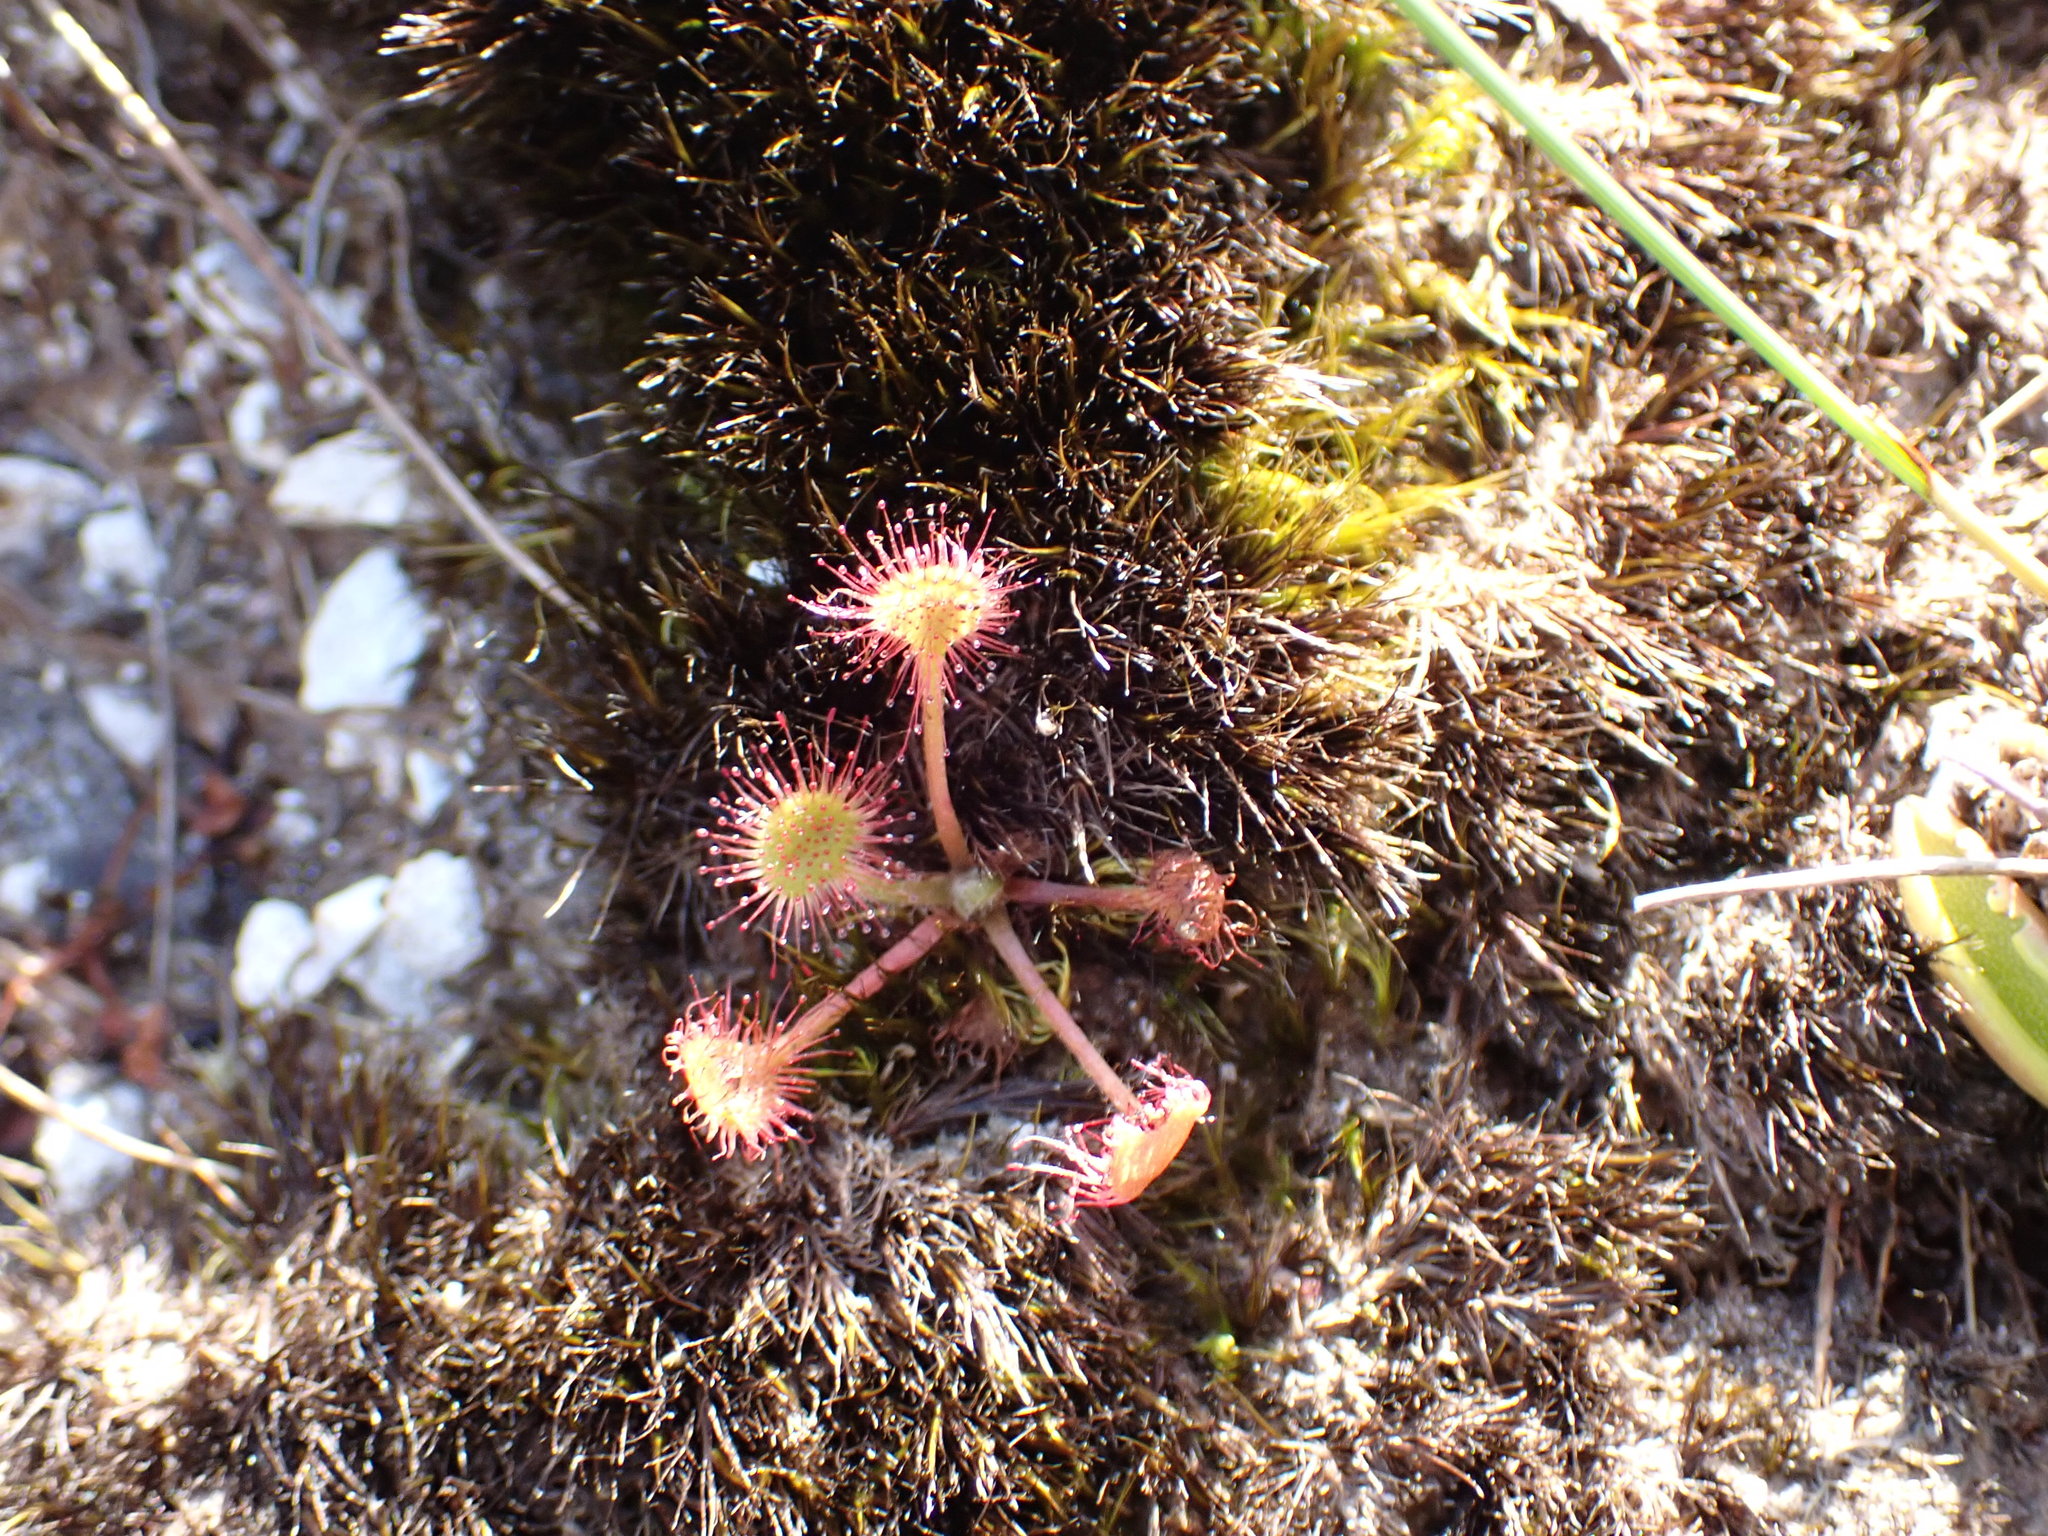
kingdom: Plantae
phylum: Tracheophyta
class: Magnoliopsida
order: Caryophyllales
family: Droseraceae
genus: Drosera
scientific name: Drosera rotundifolia
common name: Round-leaved sundew
